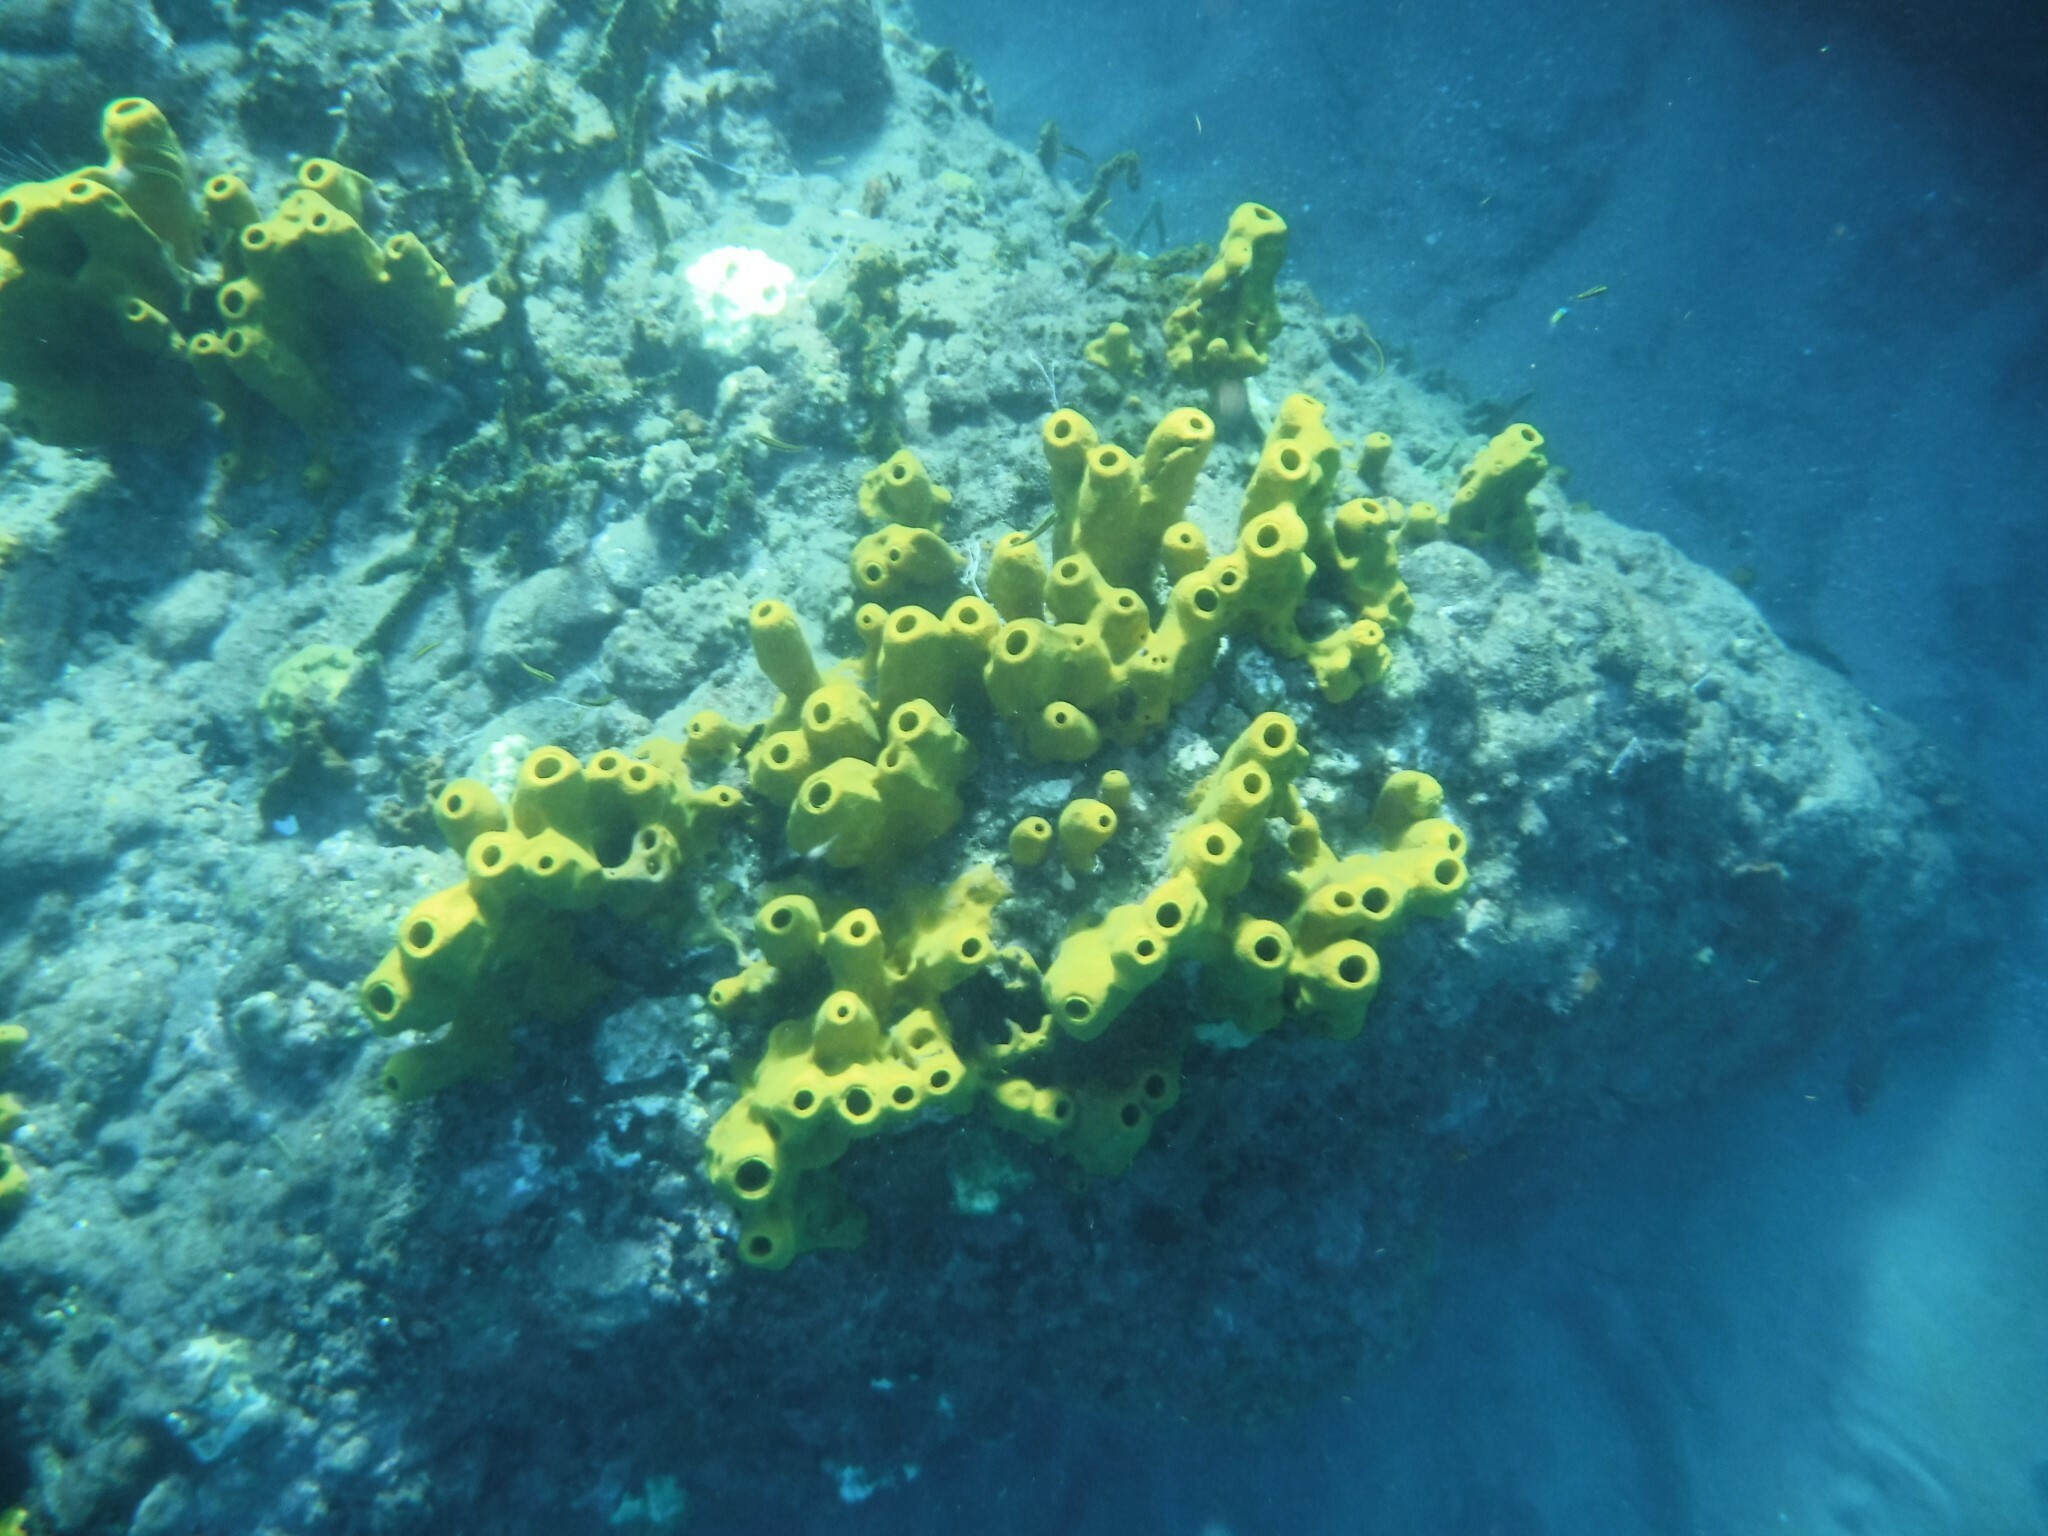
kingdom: Animalia
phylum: Porifera
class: Demospongiae
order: Verongiida
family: Aplysinidae
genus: Aplysina
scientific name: Aplysina fistularis
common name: Candle sponge
